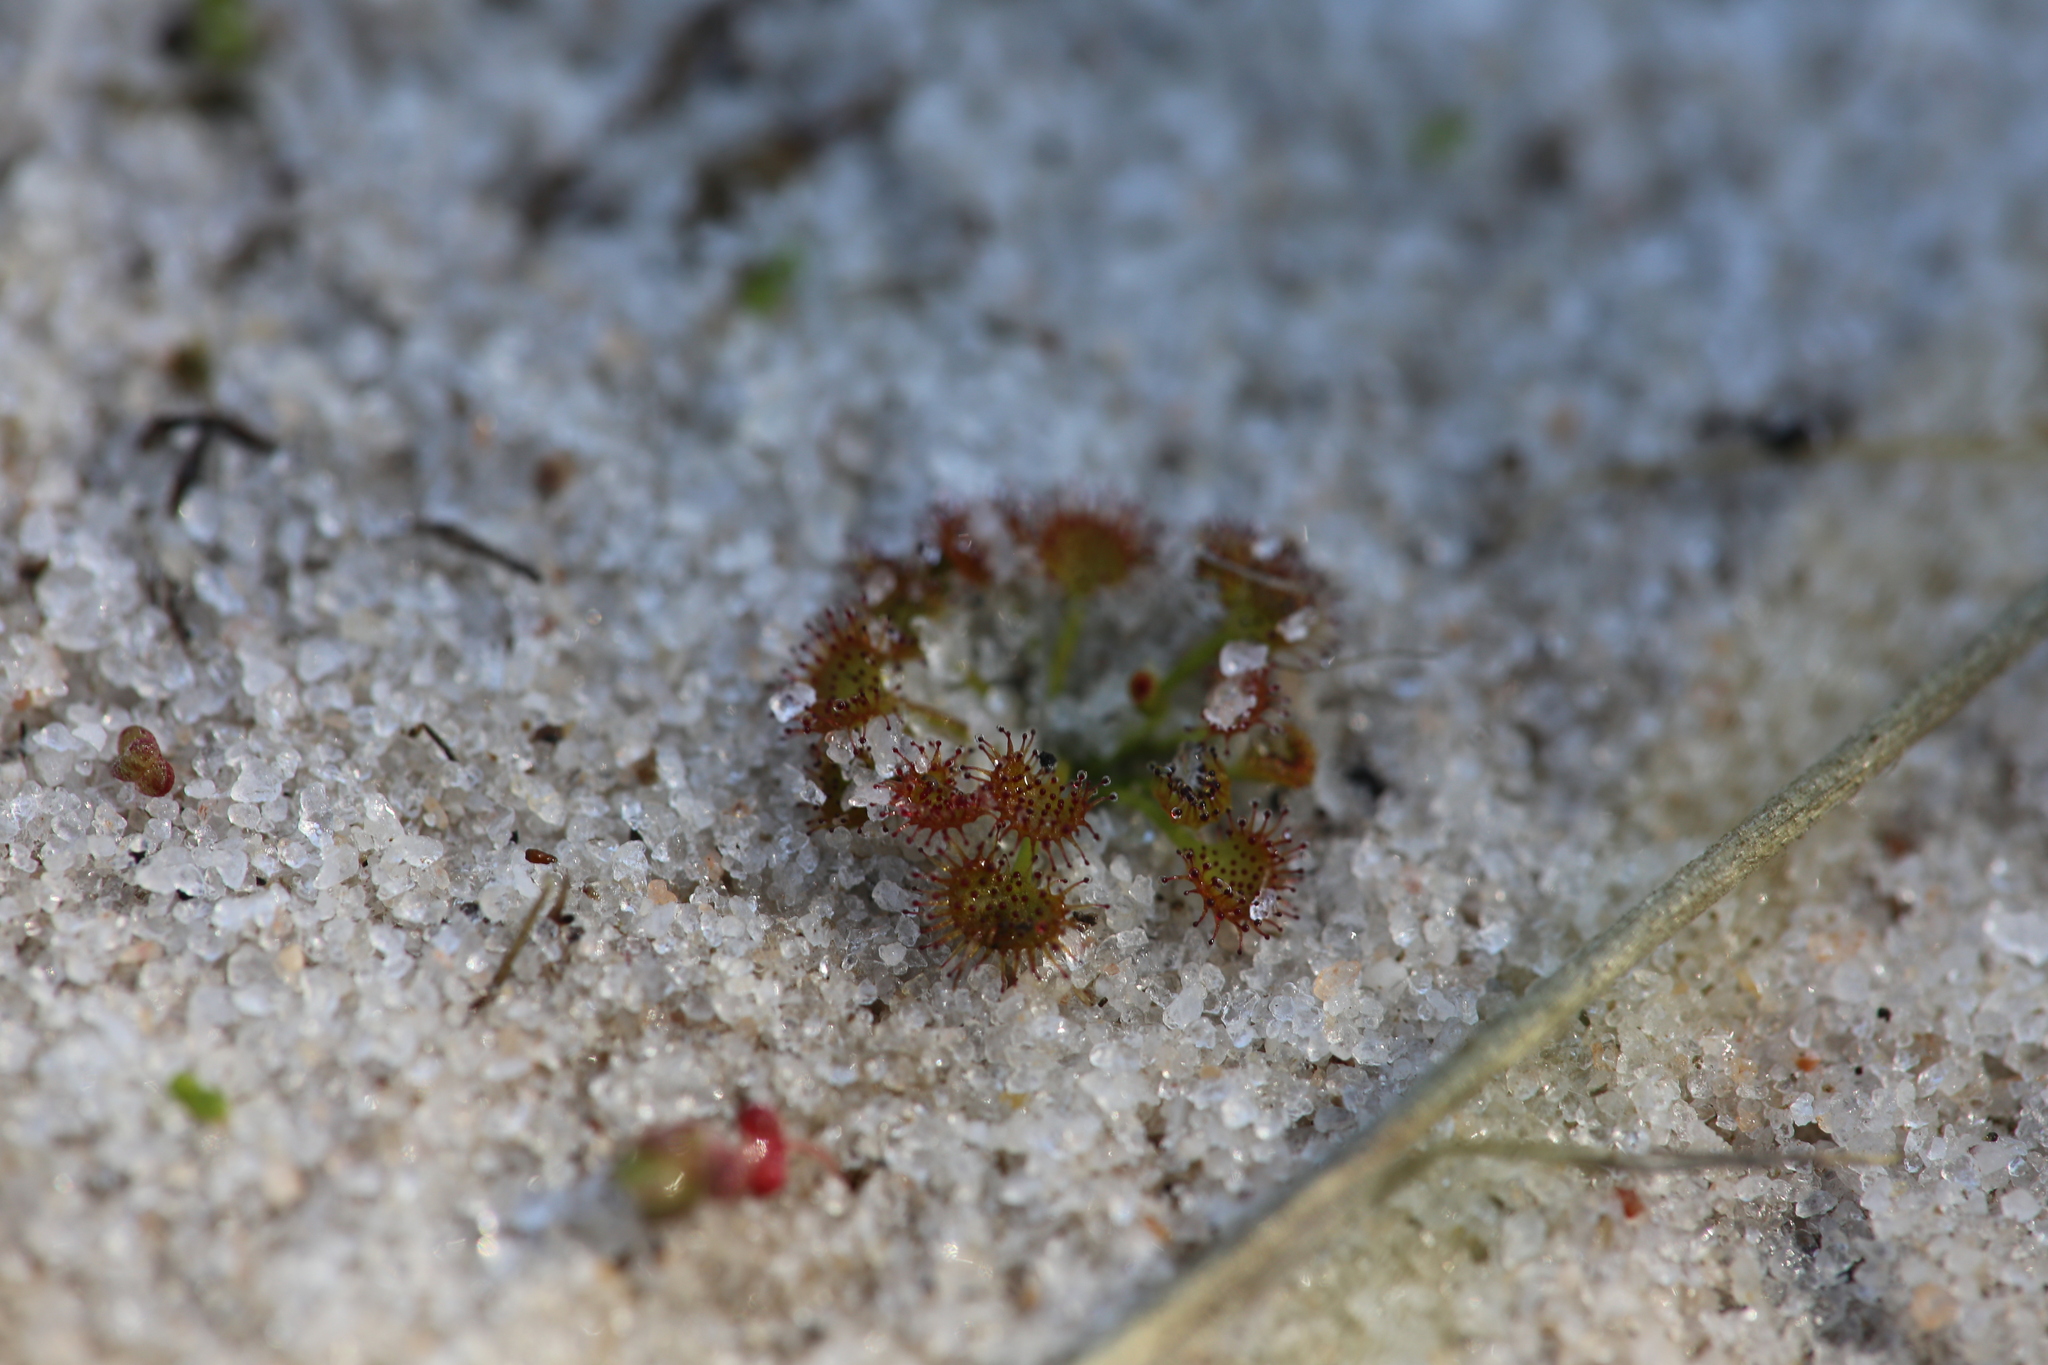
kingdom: Plantae
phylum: Tracheophyta
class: Magnoliopsida
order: Caryophyllales
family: Droseraceae
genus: Drosera
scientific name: Drosera zigzagia
